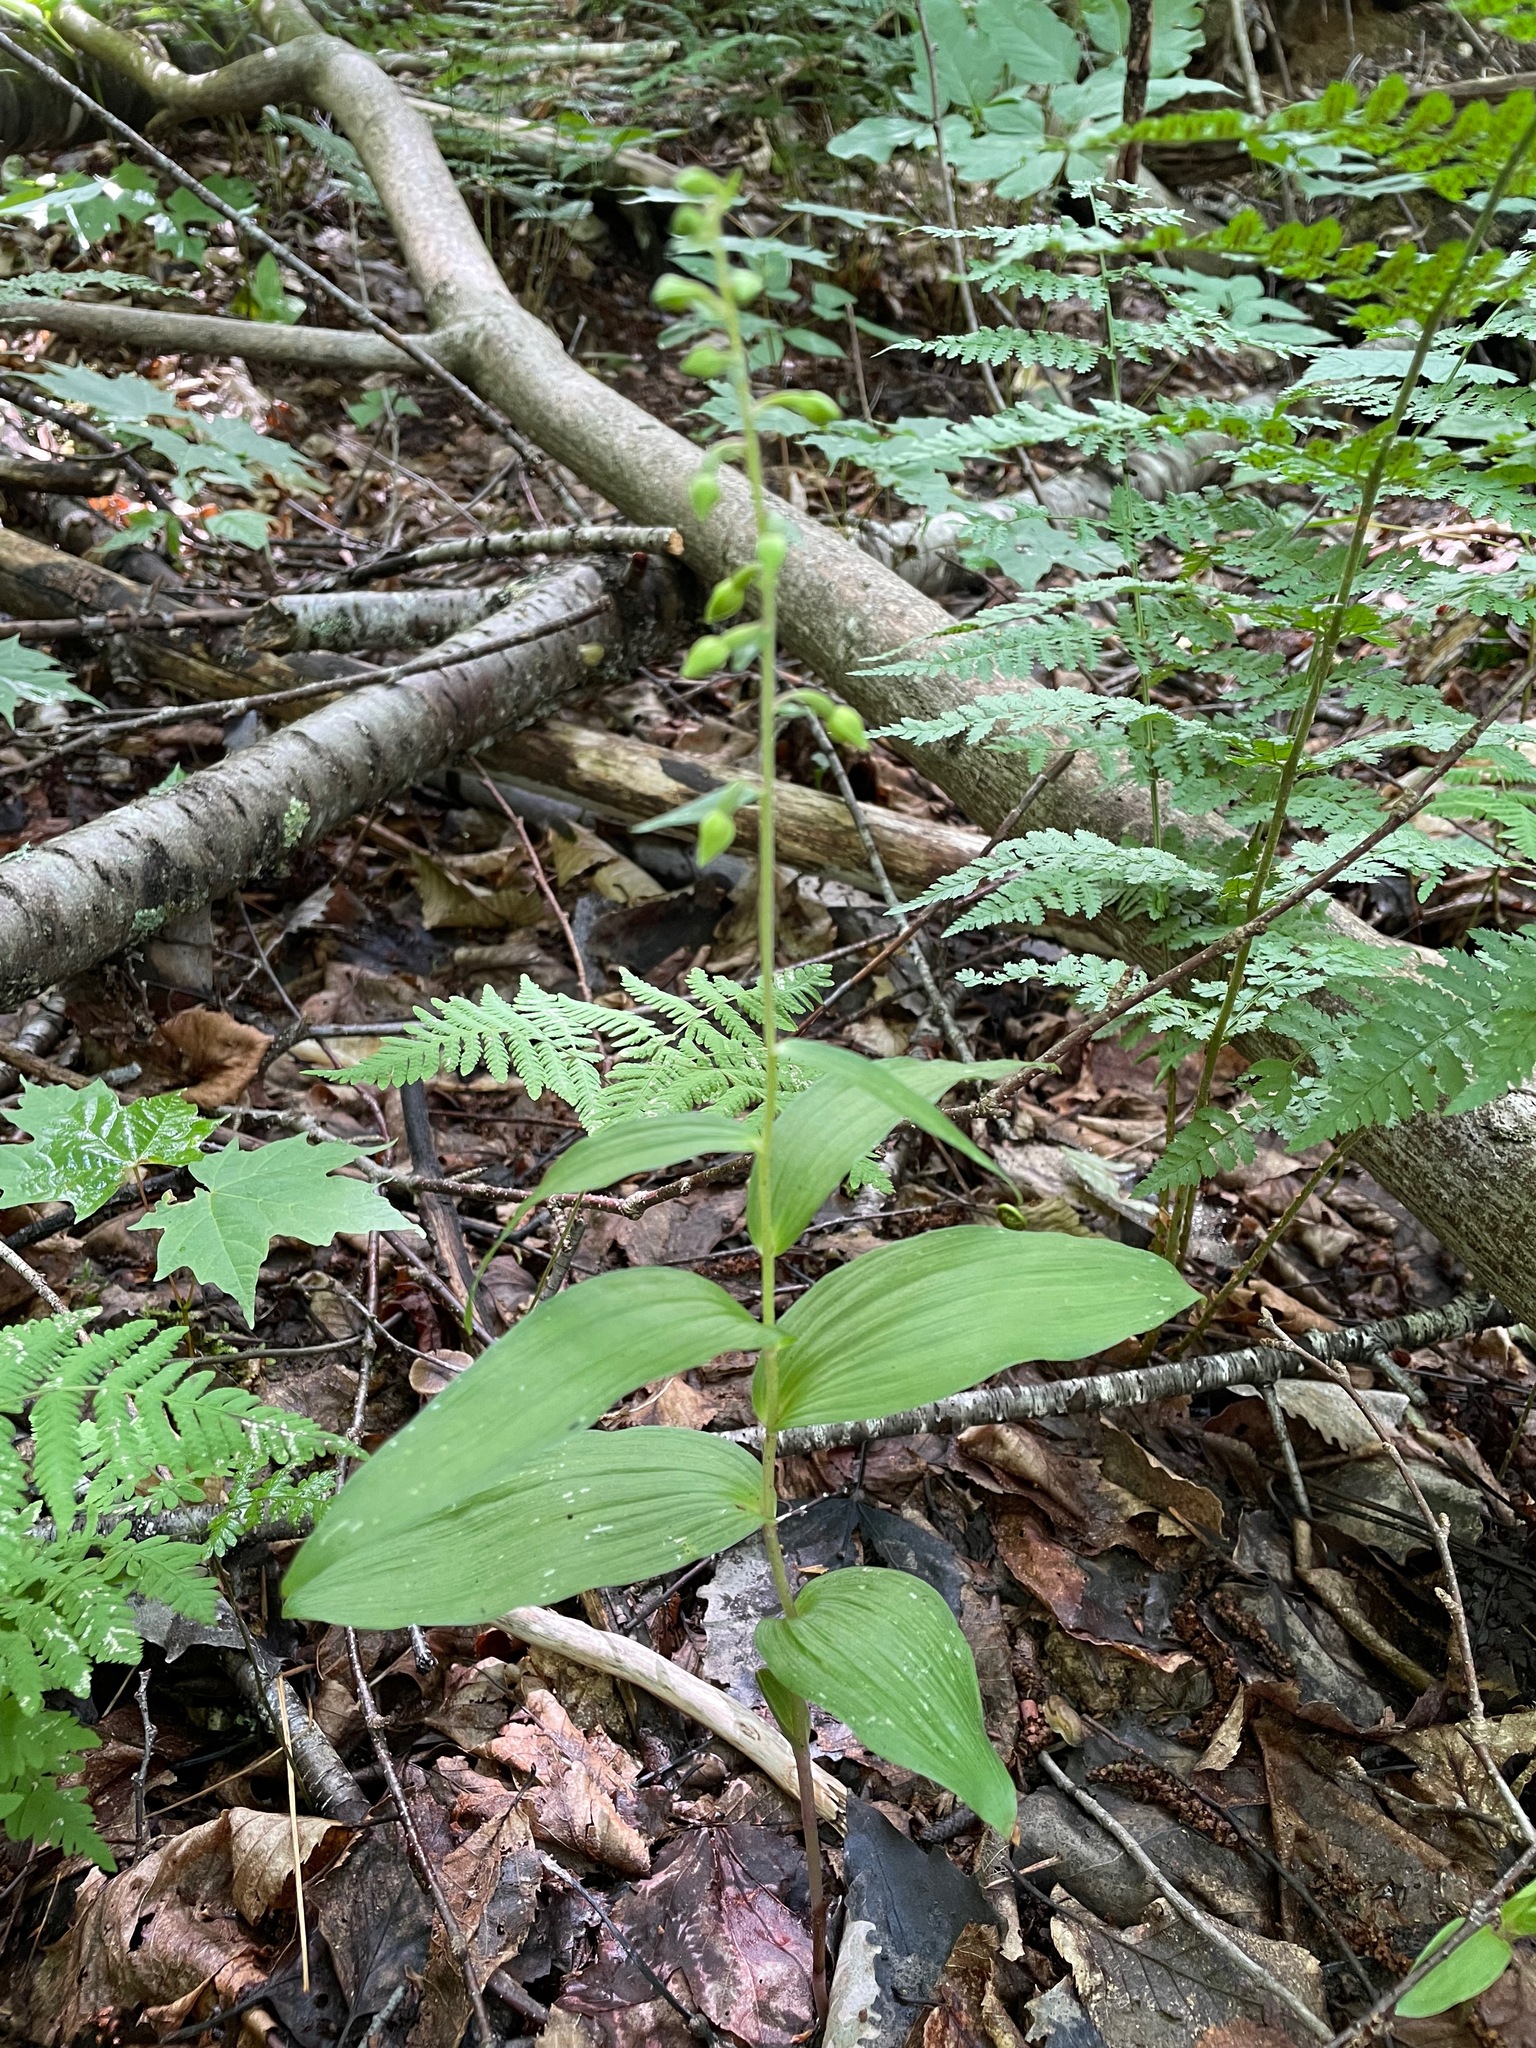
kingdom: Plantae
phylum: Tracheophyta
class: Liliopsida
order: Asparagales
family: Orchidaceae
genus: Epipactis
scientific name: Epipactis helleborine
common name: Broad-leaved helleborine
